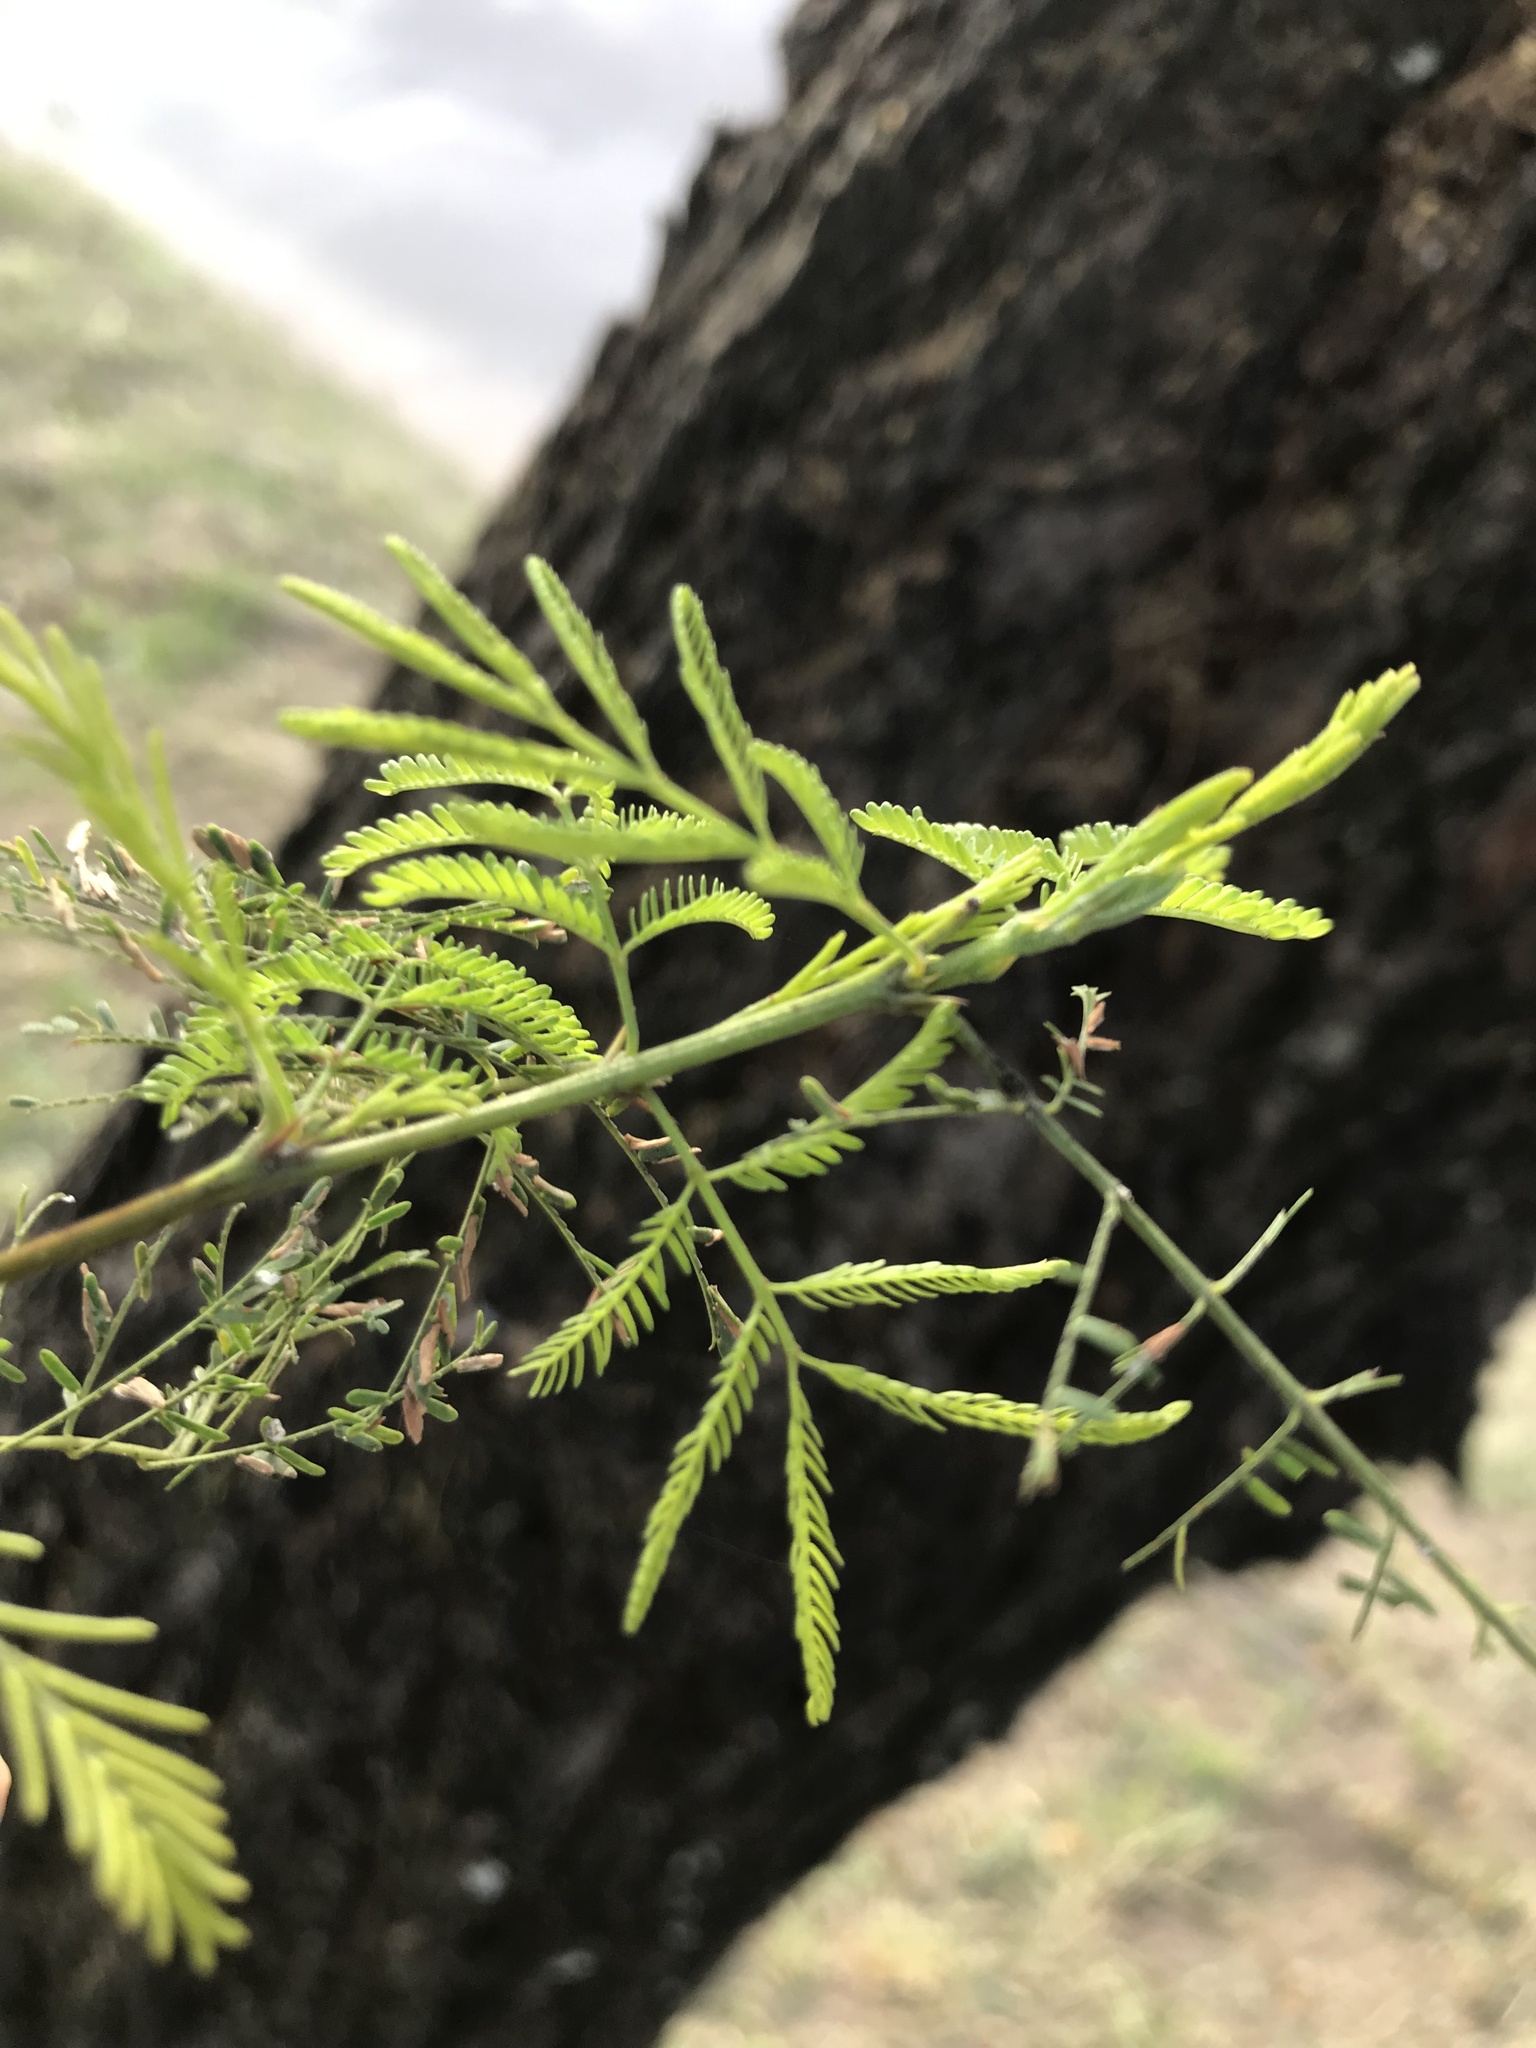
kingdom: Plantae
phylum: Tracheophyta
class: Magnoliopsida
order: Fabales
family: Fabaceae
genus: Vachellia
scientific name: Vachellia caven
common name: Roman cassie
